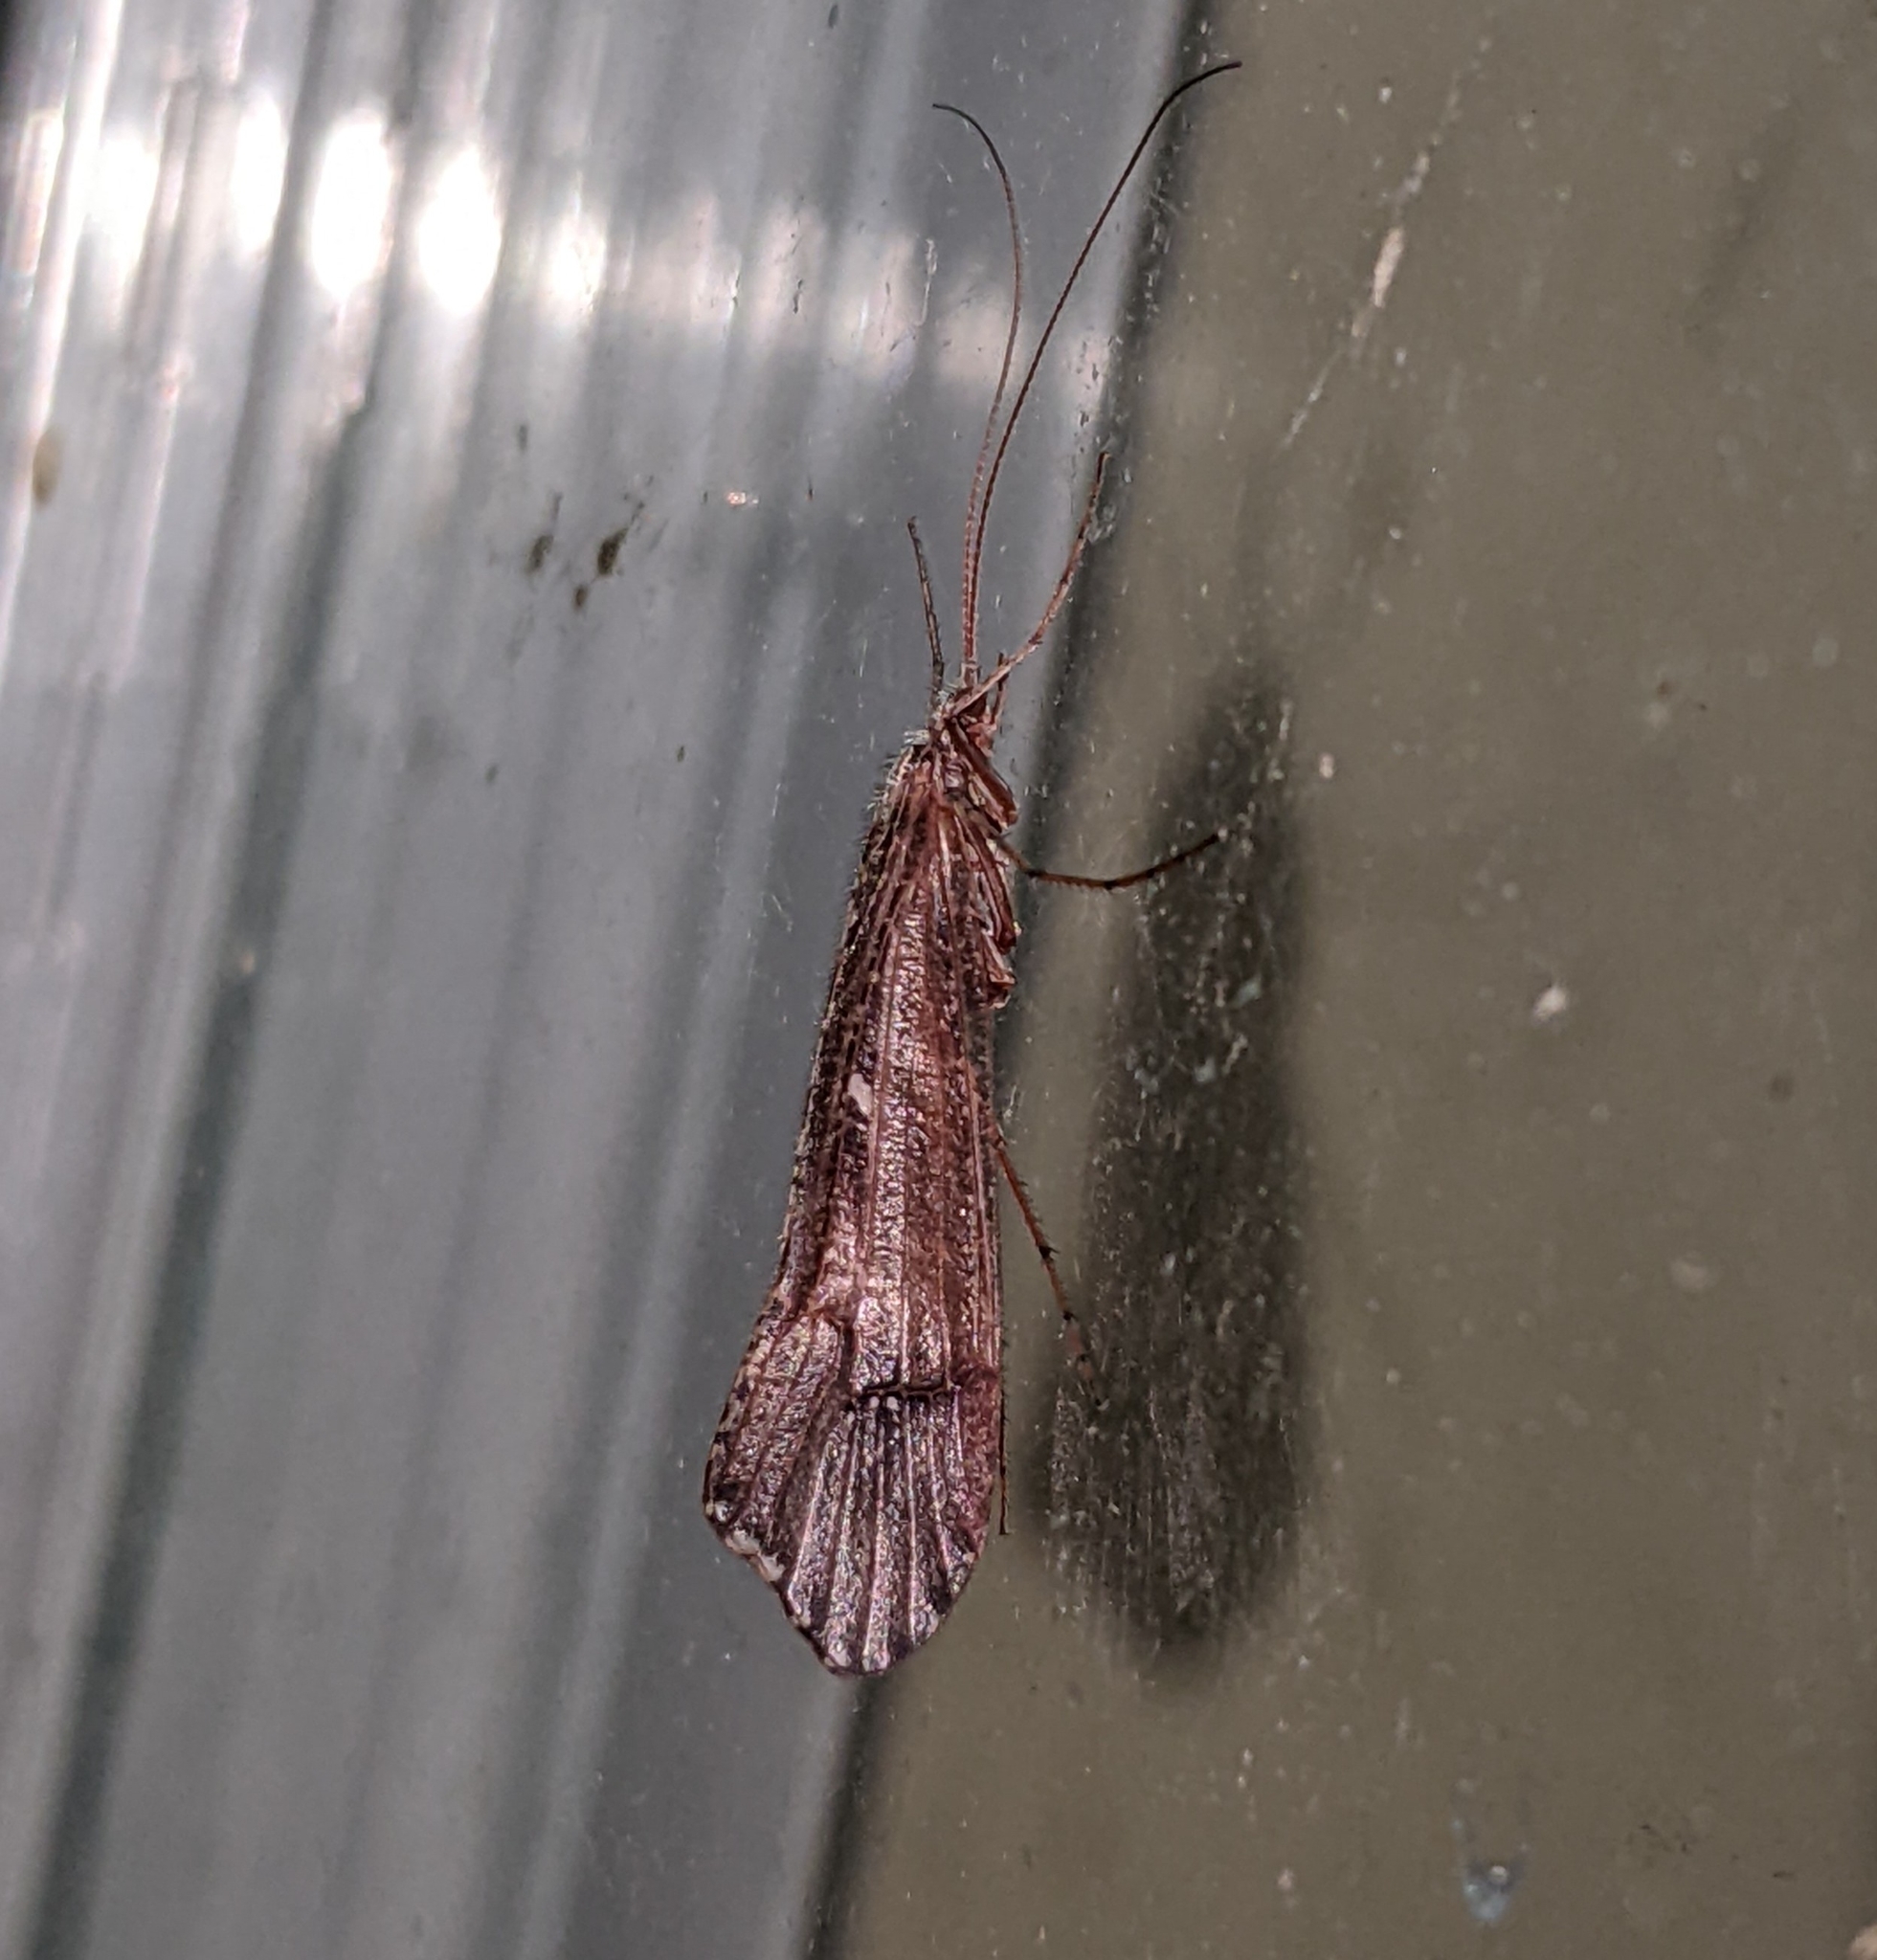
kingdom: Animalia
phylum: Arthropoda
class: Insecta
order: Trichoptera
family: Limnephilidae
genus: Glyphopsyche
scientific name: Glyphopsyche irrorata
